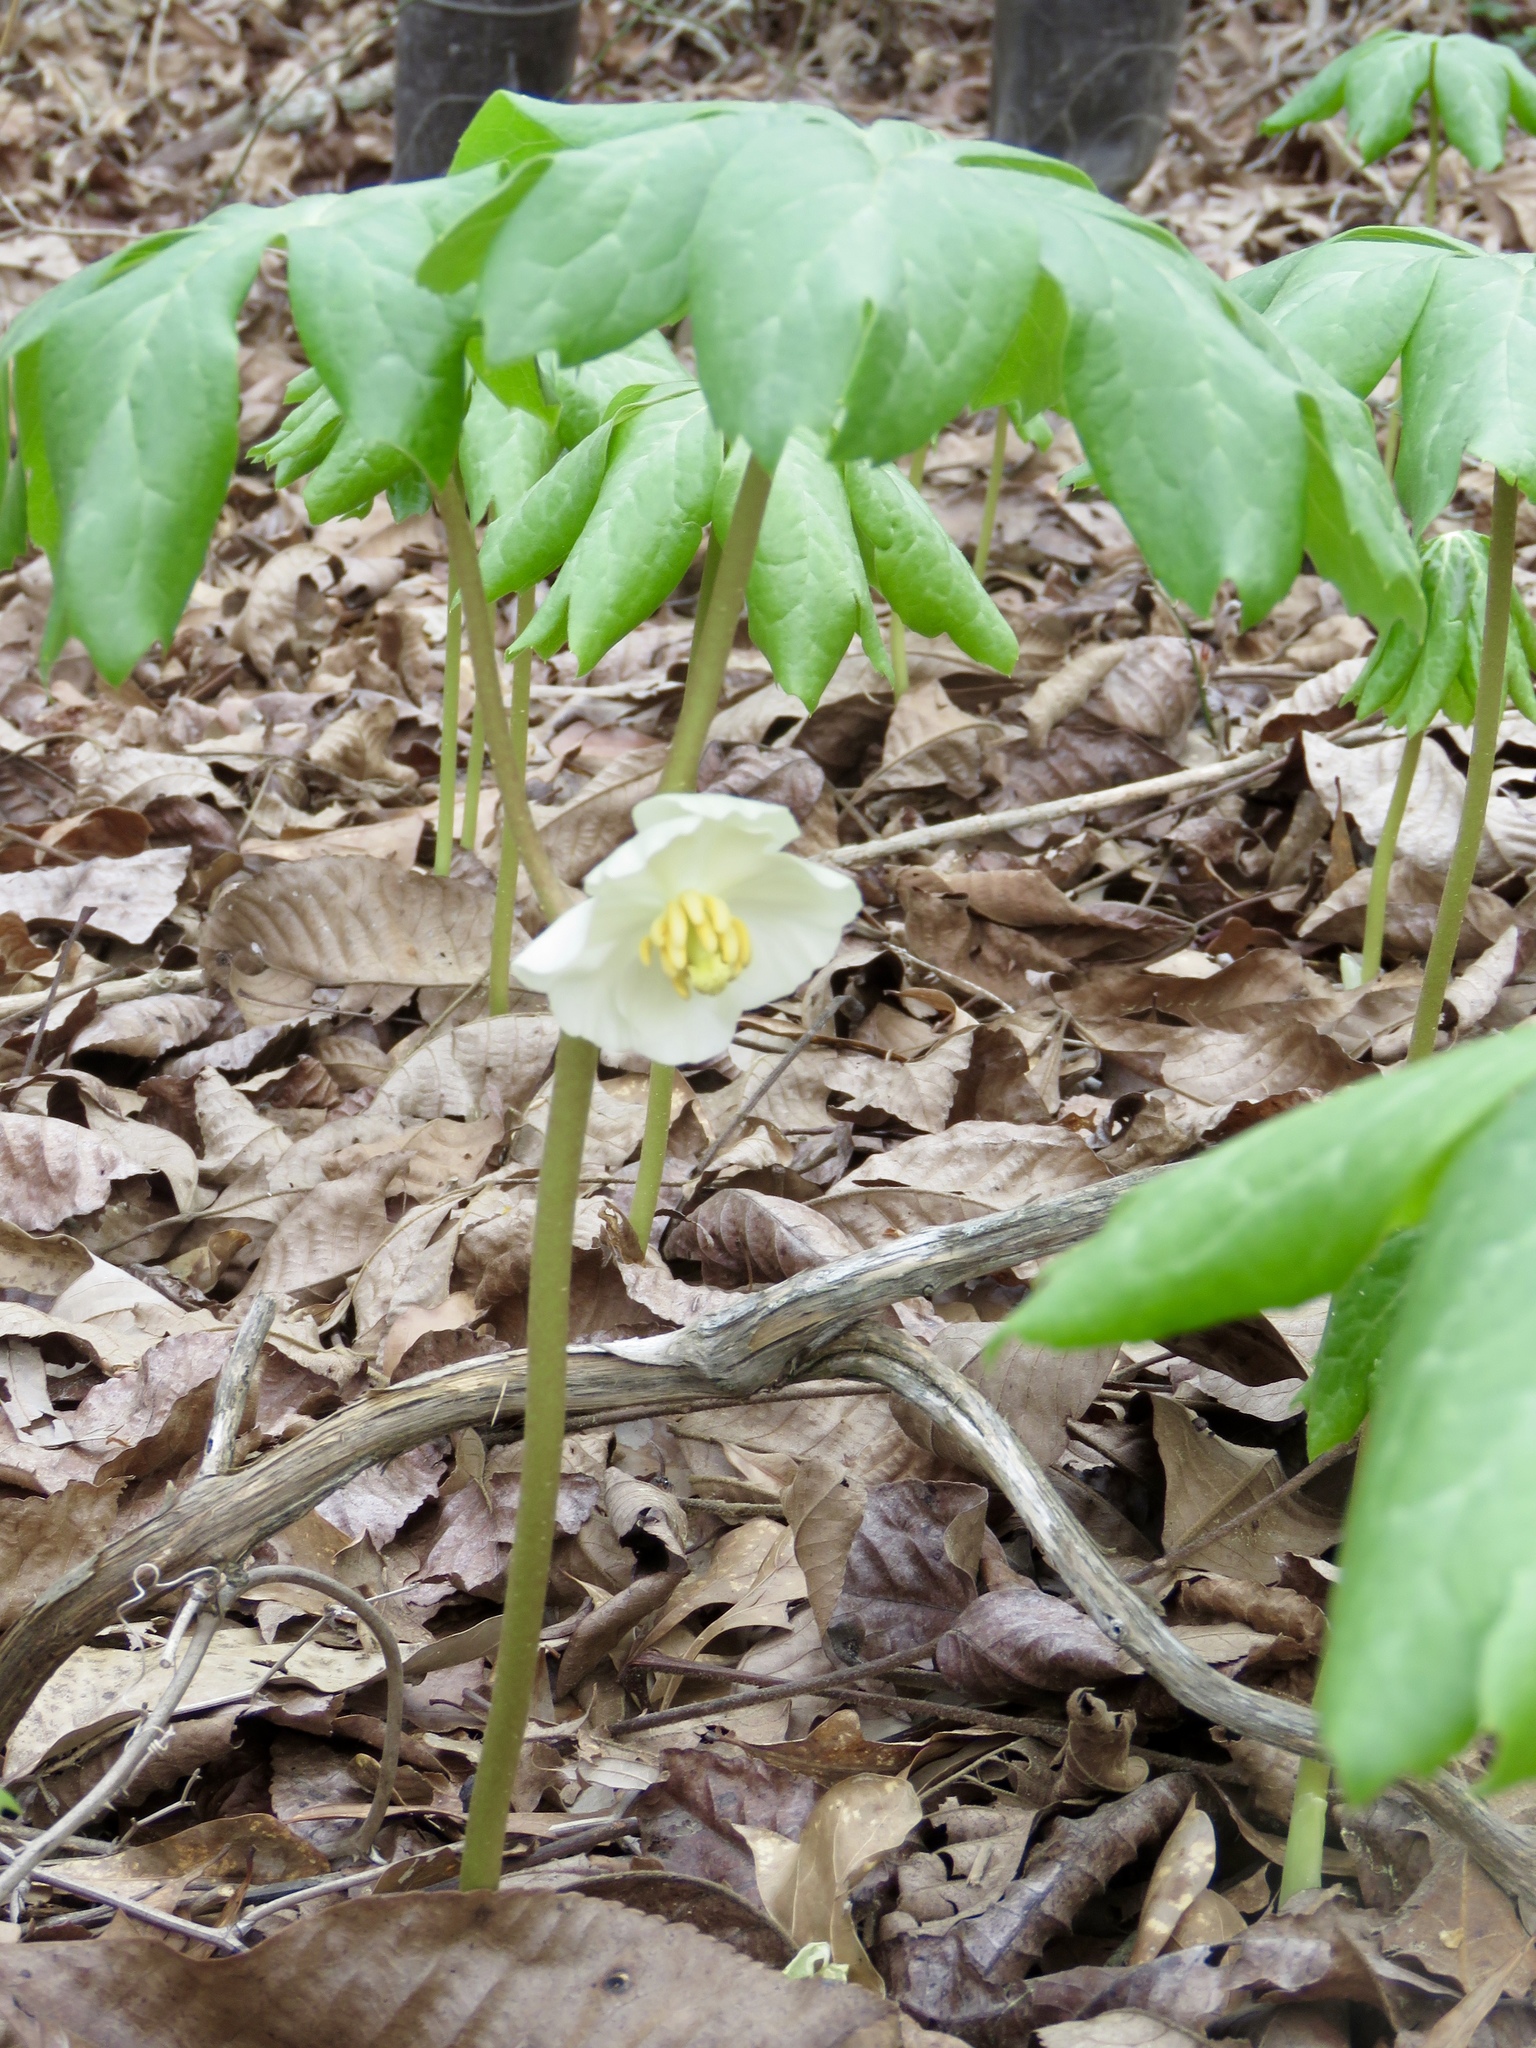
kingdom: Plantae
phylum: Tracheophyta
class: Magnoliopsida
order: Ranunculales
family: Berberidaceae
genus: Podophyllum
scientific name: Podophyllum peltatum
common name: Wild mandrake
